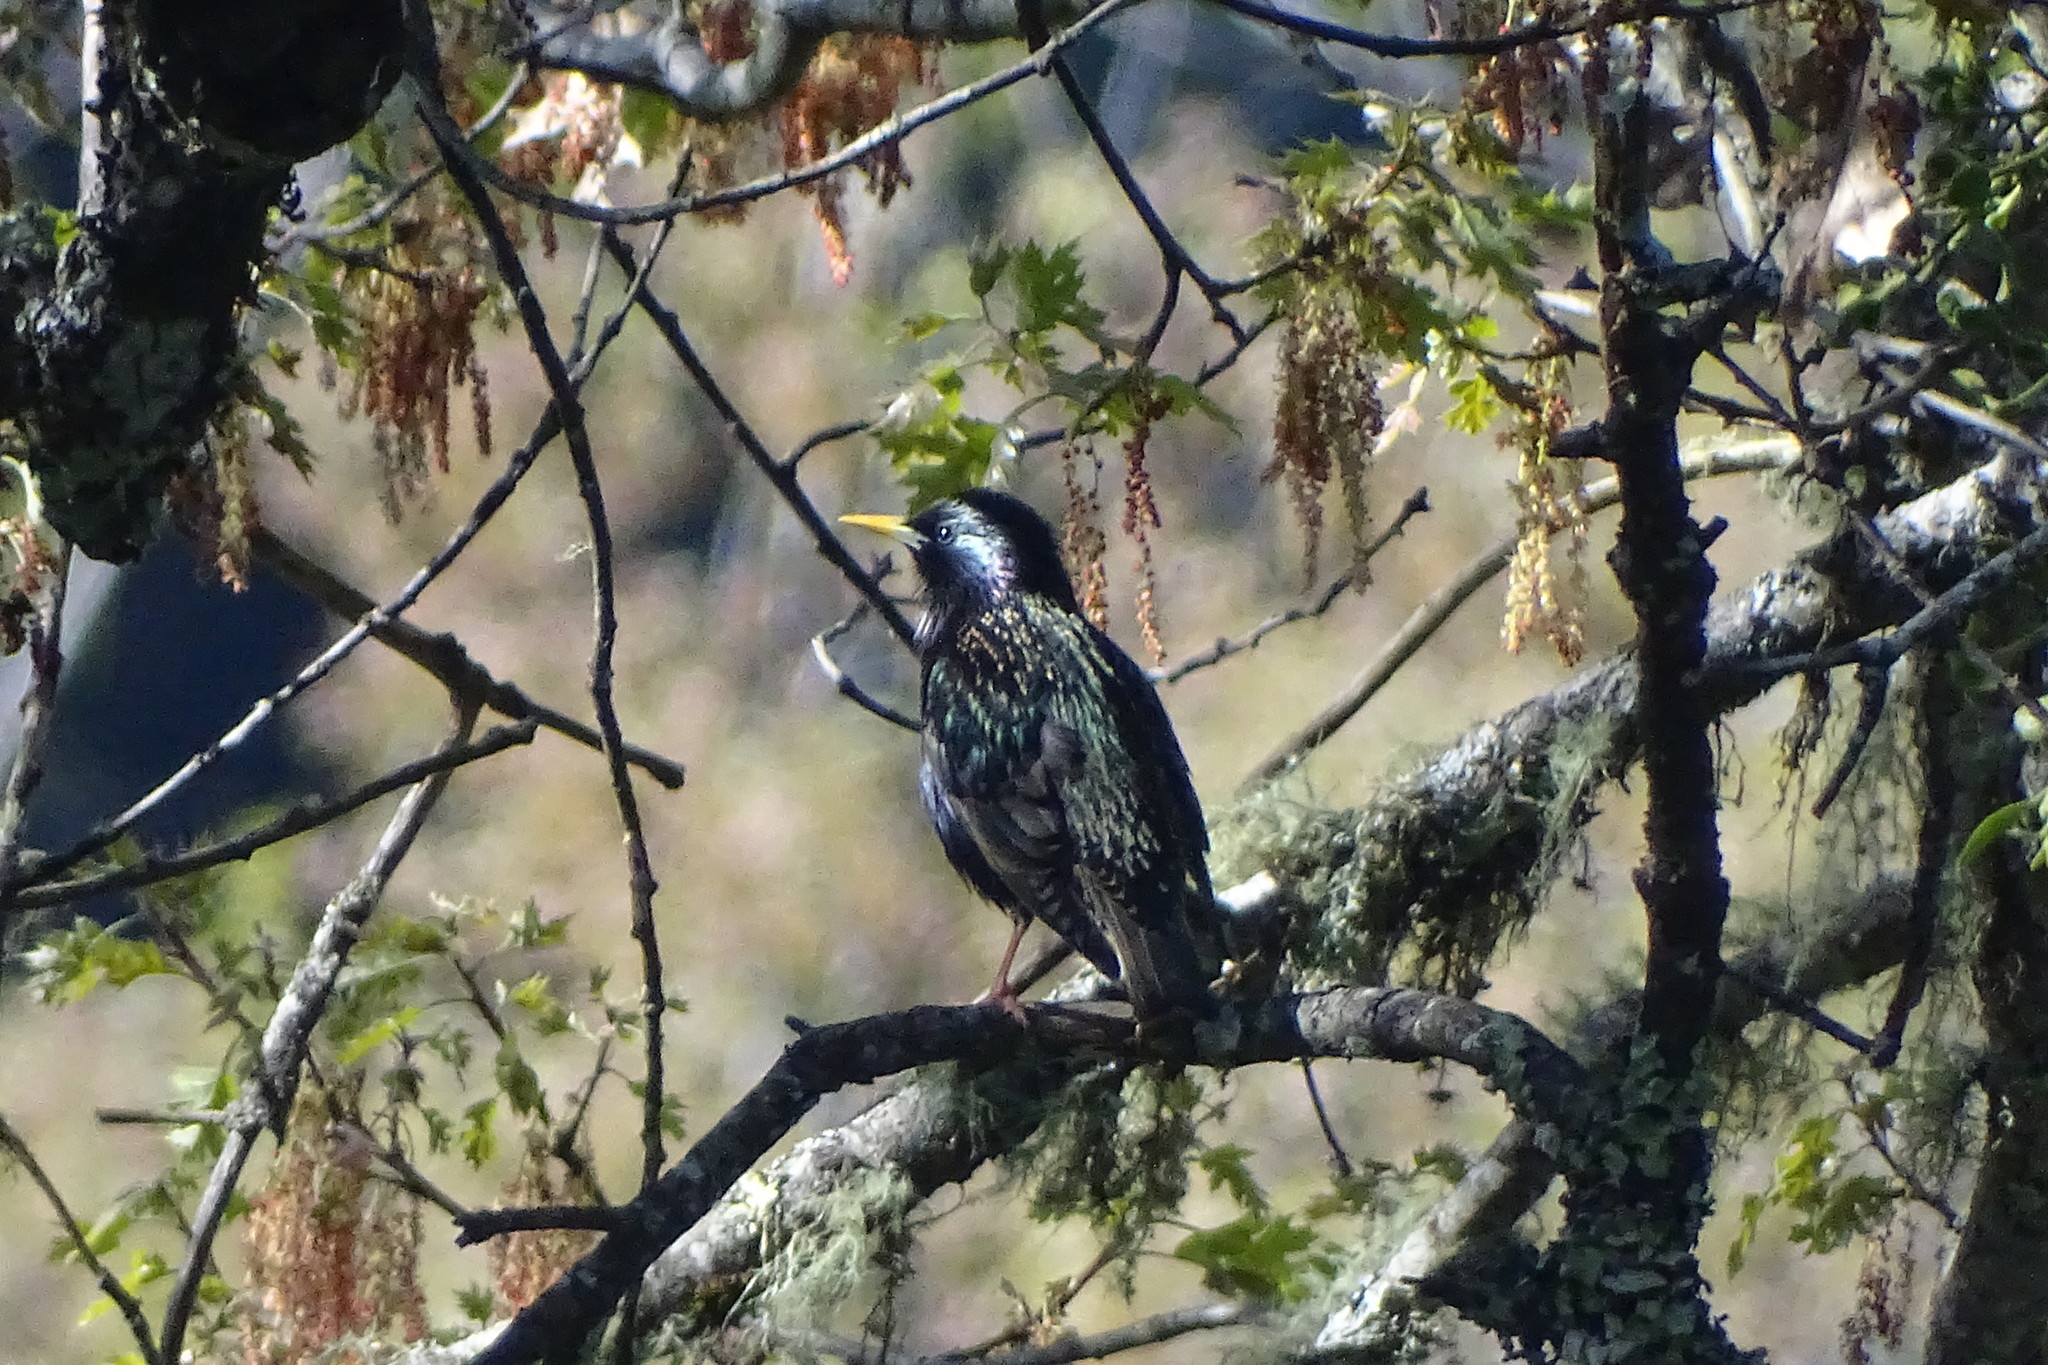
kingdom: Animalia
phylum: Chordata
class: Aves
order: Passeriformes
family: Sturnidae
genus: Sturnus
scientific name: Sturnus vulgaris
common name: Common starling
